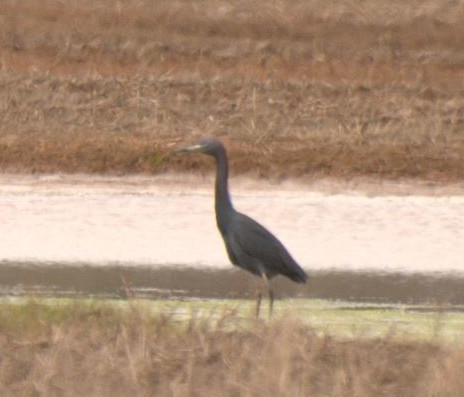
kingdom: Animalia
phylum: Chordata
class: Aves
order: Pelecaniformes
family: Ardeidae
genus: Egretta
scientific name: Egretta caerulea
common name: Little blue heron
